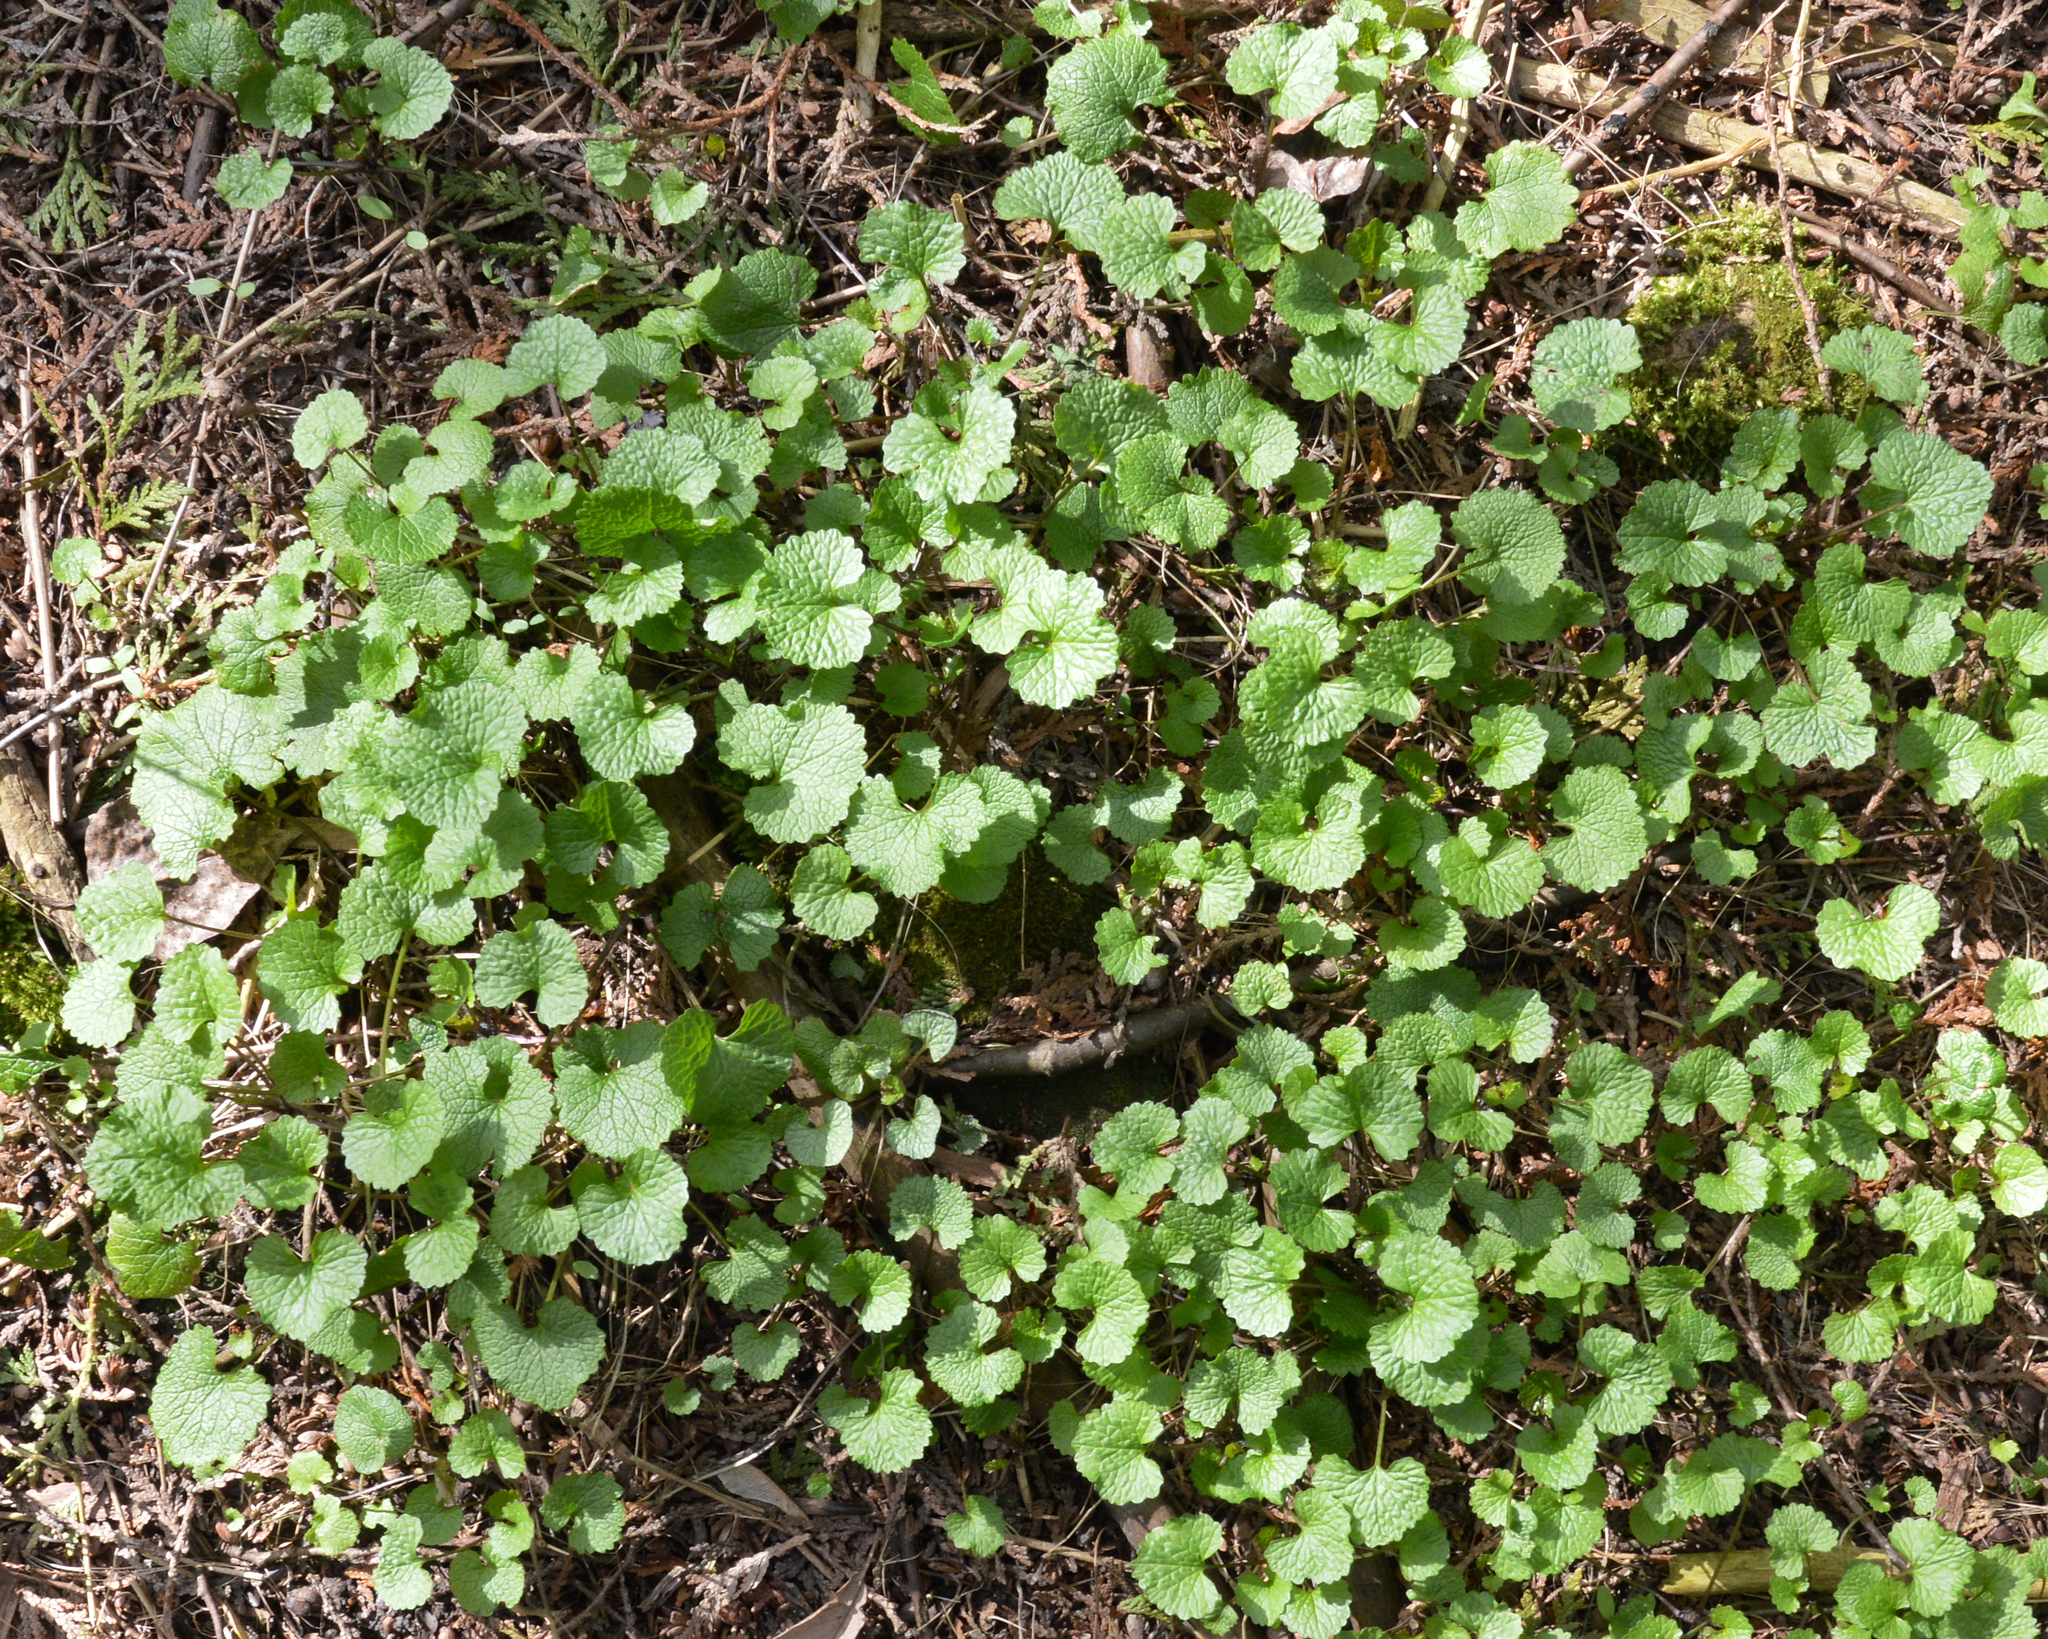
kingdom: Plantae
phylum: Tracheophyta
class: Magnoliopsida
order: Brassicales
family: Brassicaceae
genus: Alliaria
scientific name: Alliaria petiolata
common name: Garlic mustard
